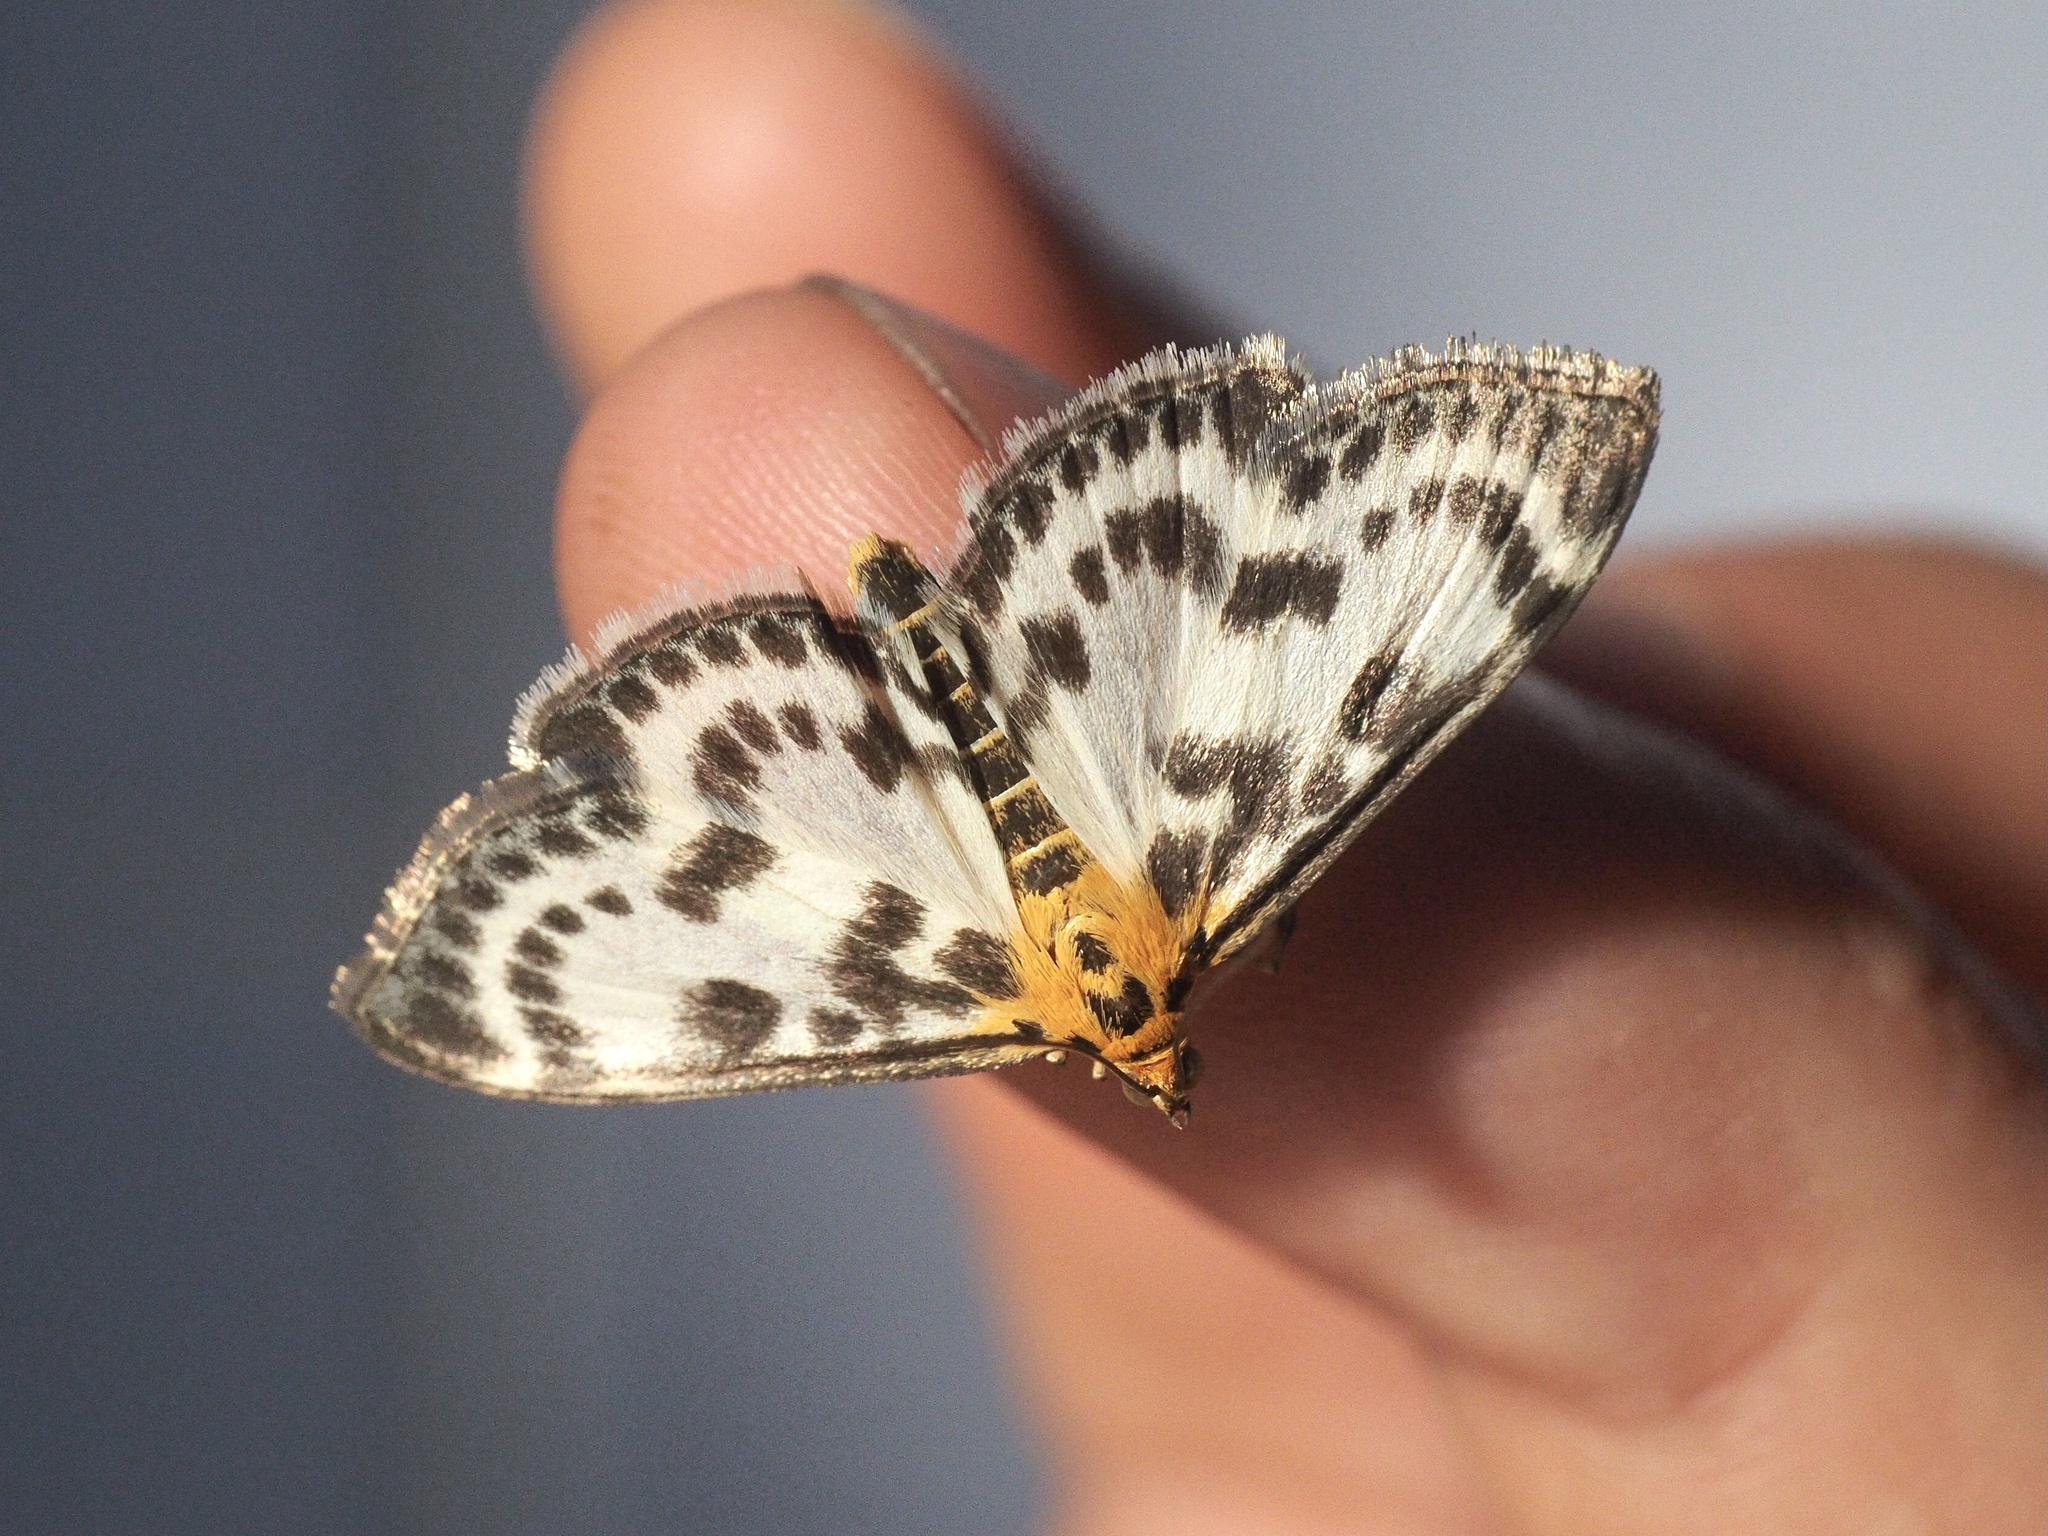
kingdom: Animalia
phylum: Arthropoda
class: Insecta
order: Lepidoptera
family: Crambidae
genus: Anania
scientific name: Anania hortulata
